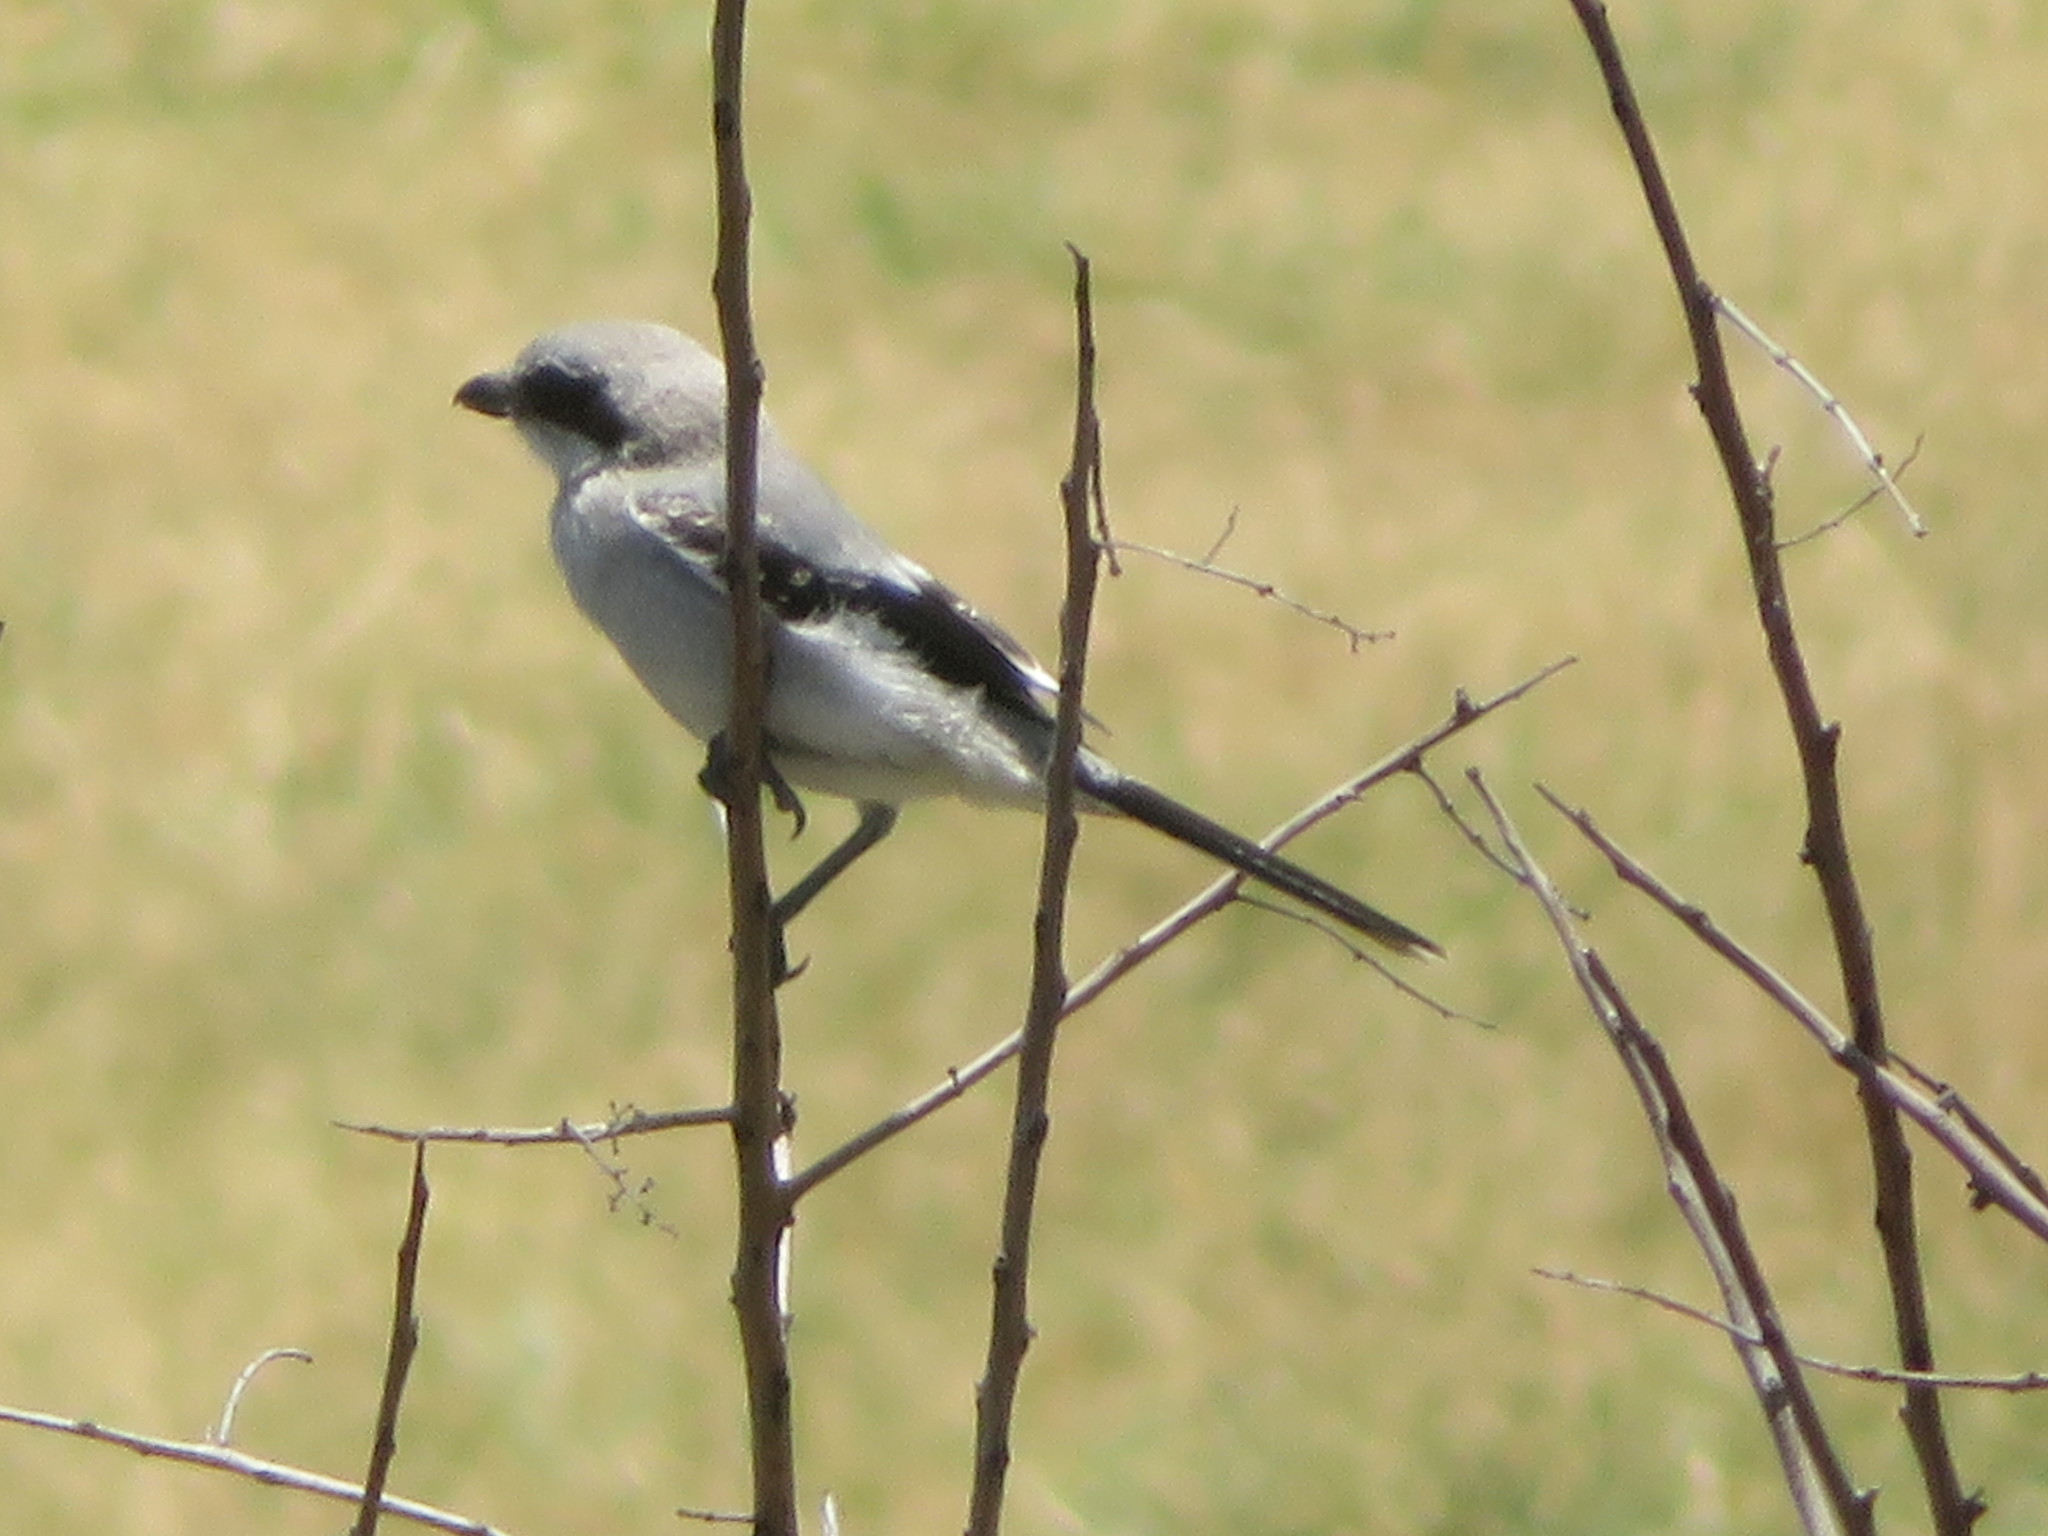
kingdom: Animalia
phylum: Chordata
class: Aves
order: Passeriformes
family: Laniidae
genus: Lanius
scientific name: Lanius ludovicianus
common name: Loggerhead shrike
